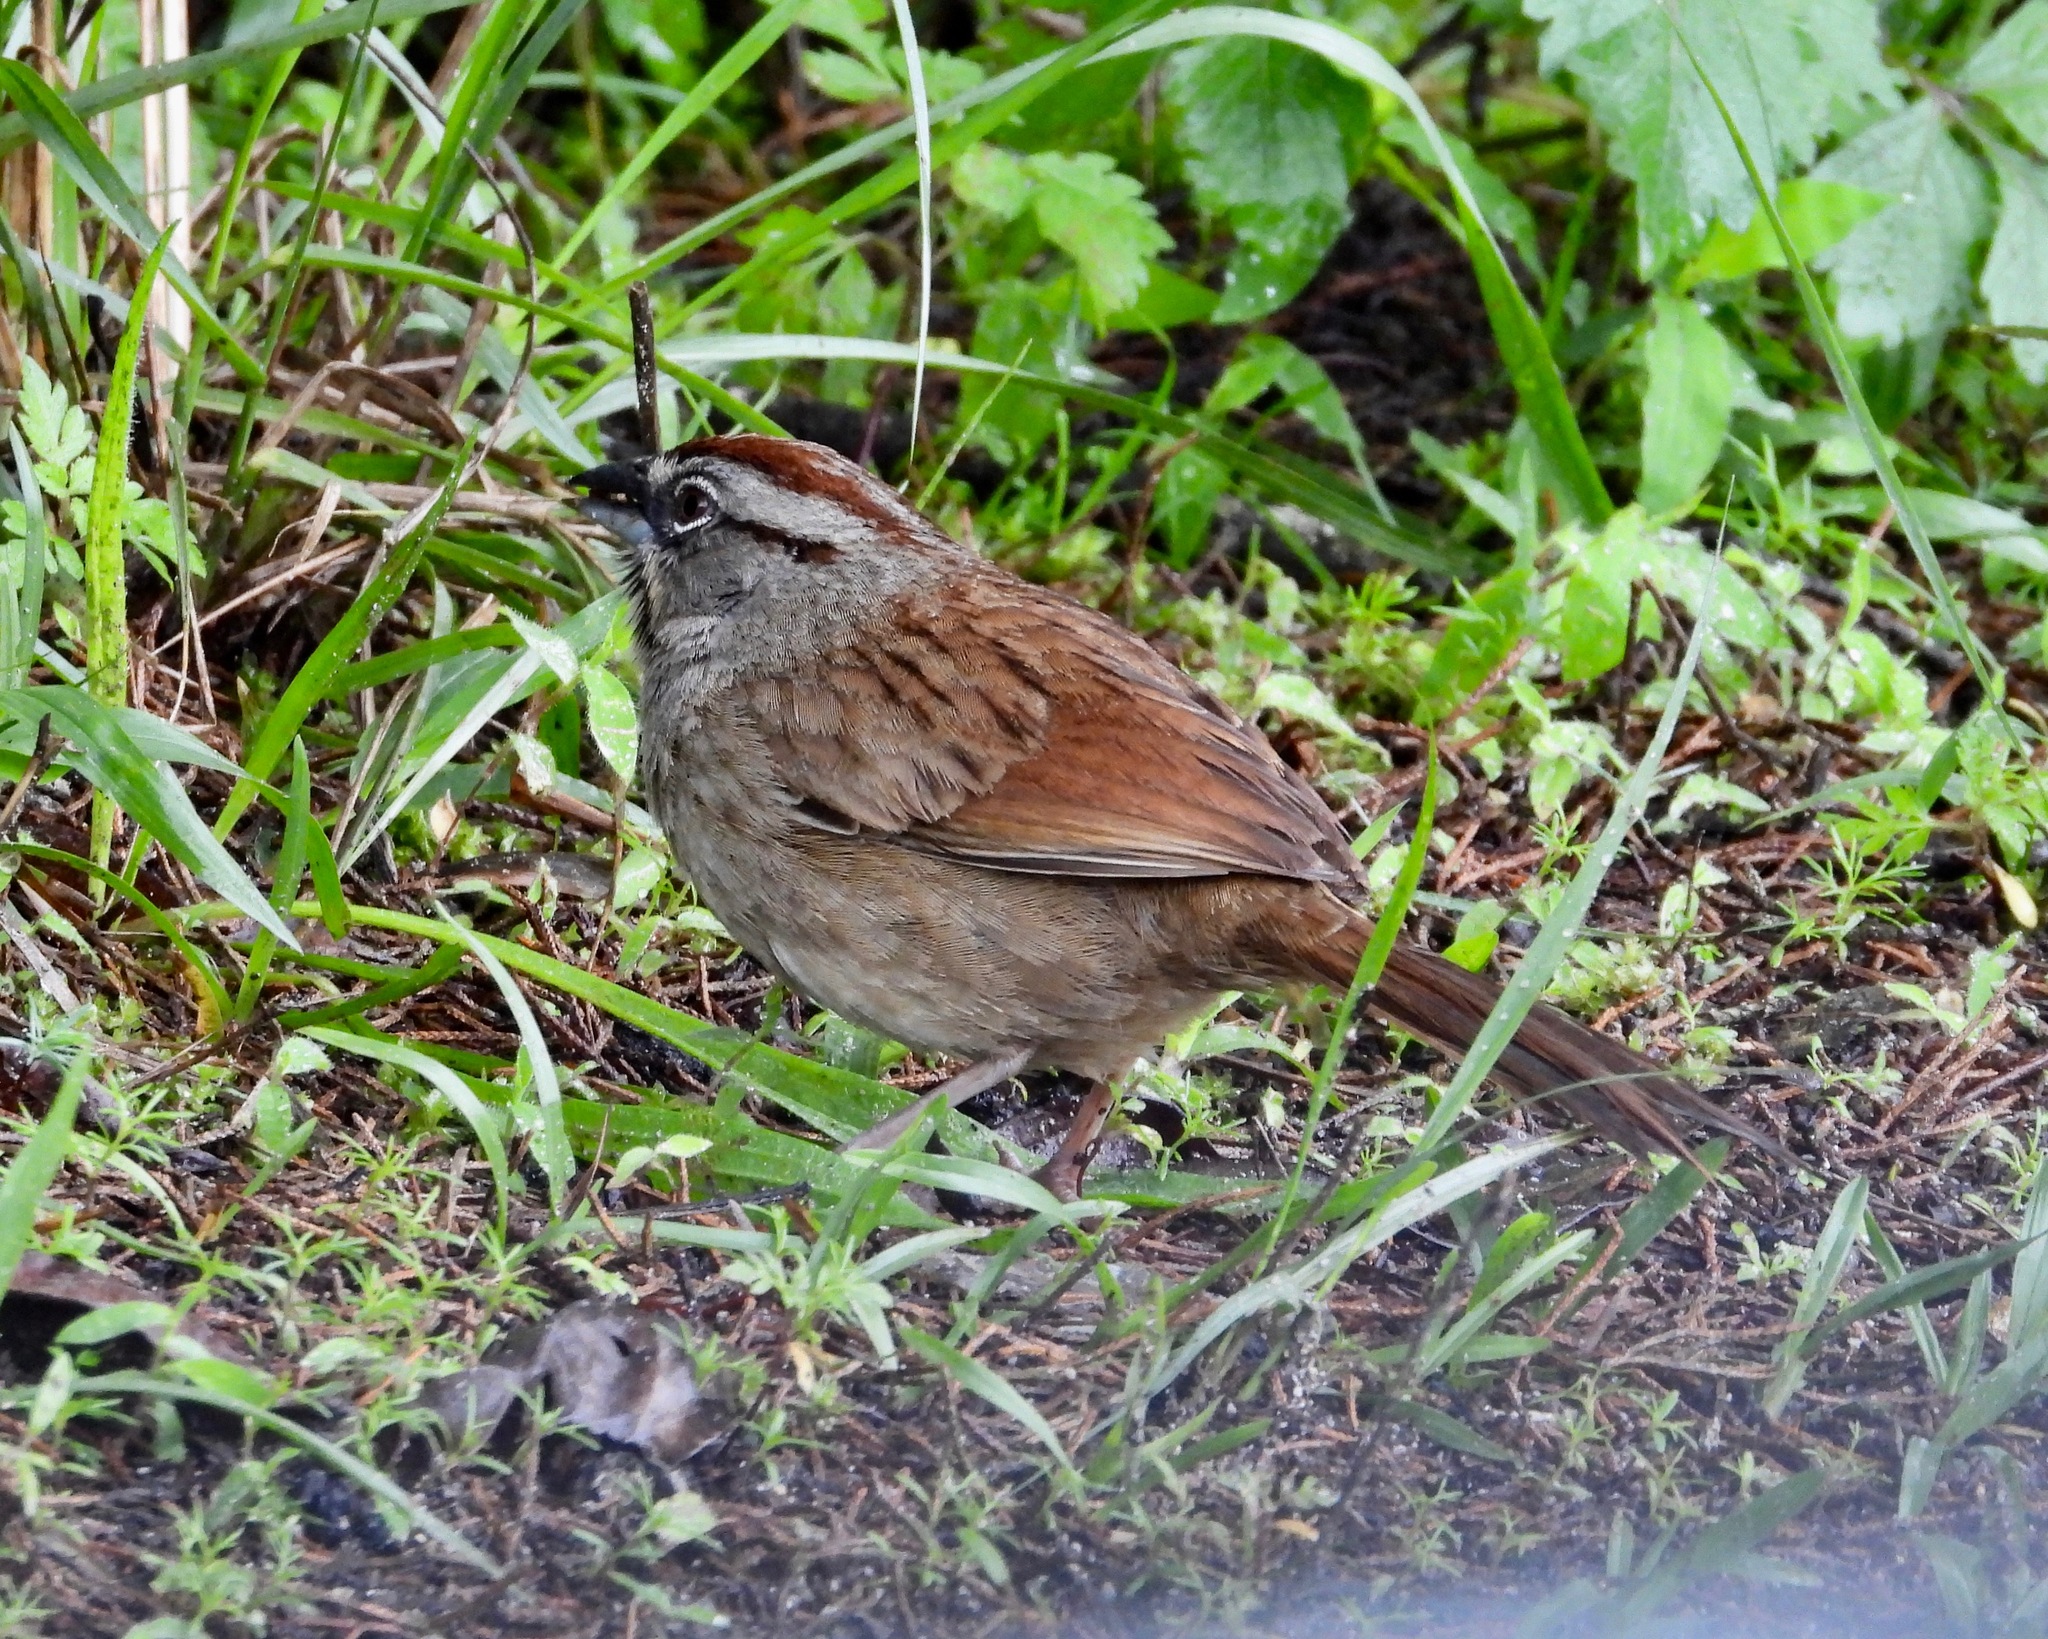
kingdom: Animalia
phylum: Chordata
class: Aves
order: Passeriformes
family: Passerellidae
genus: Aimophila
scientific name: Aimophila rufescens
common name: Rusty sparrow
